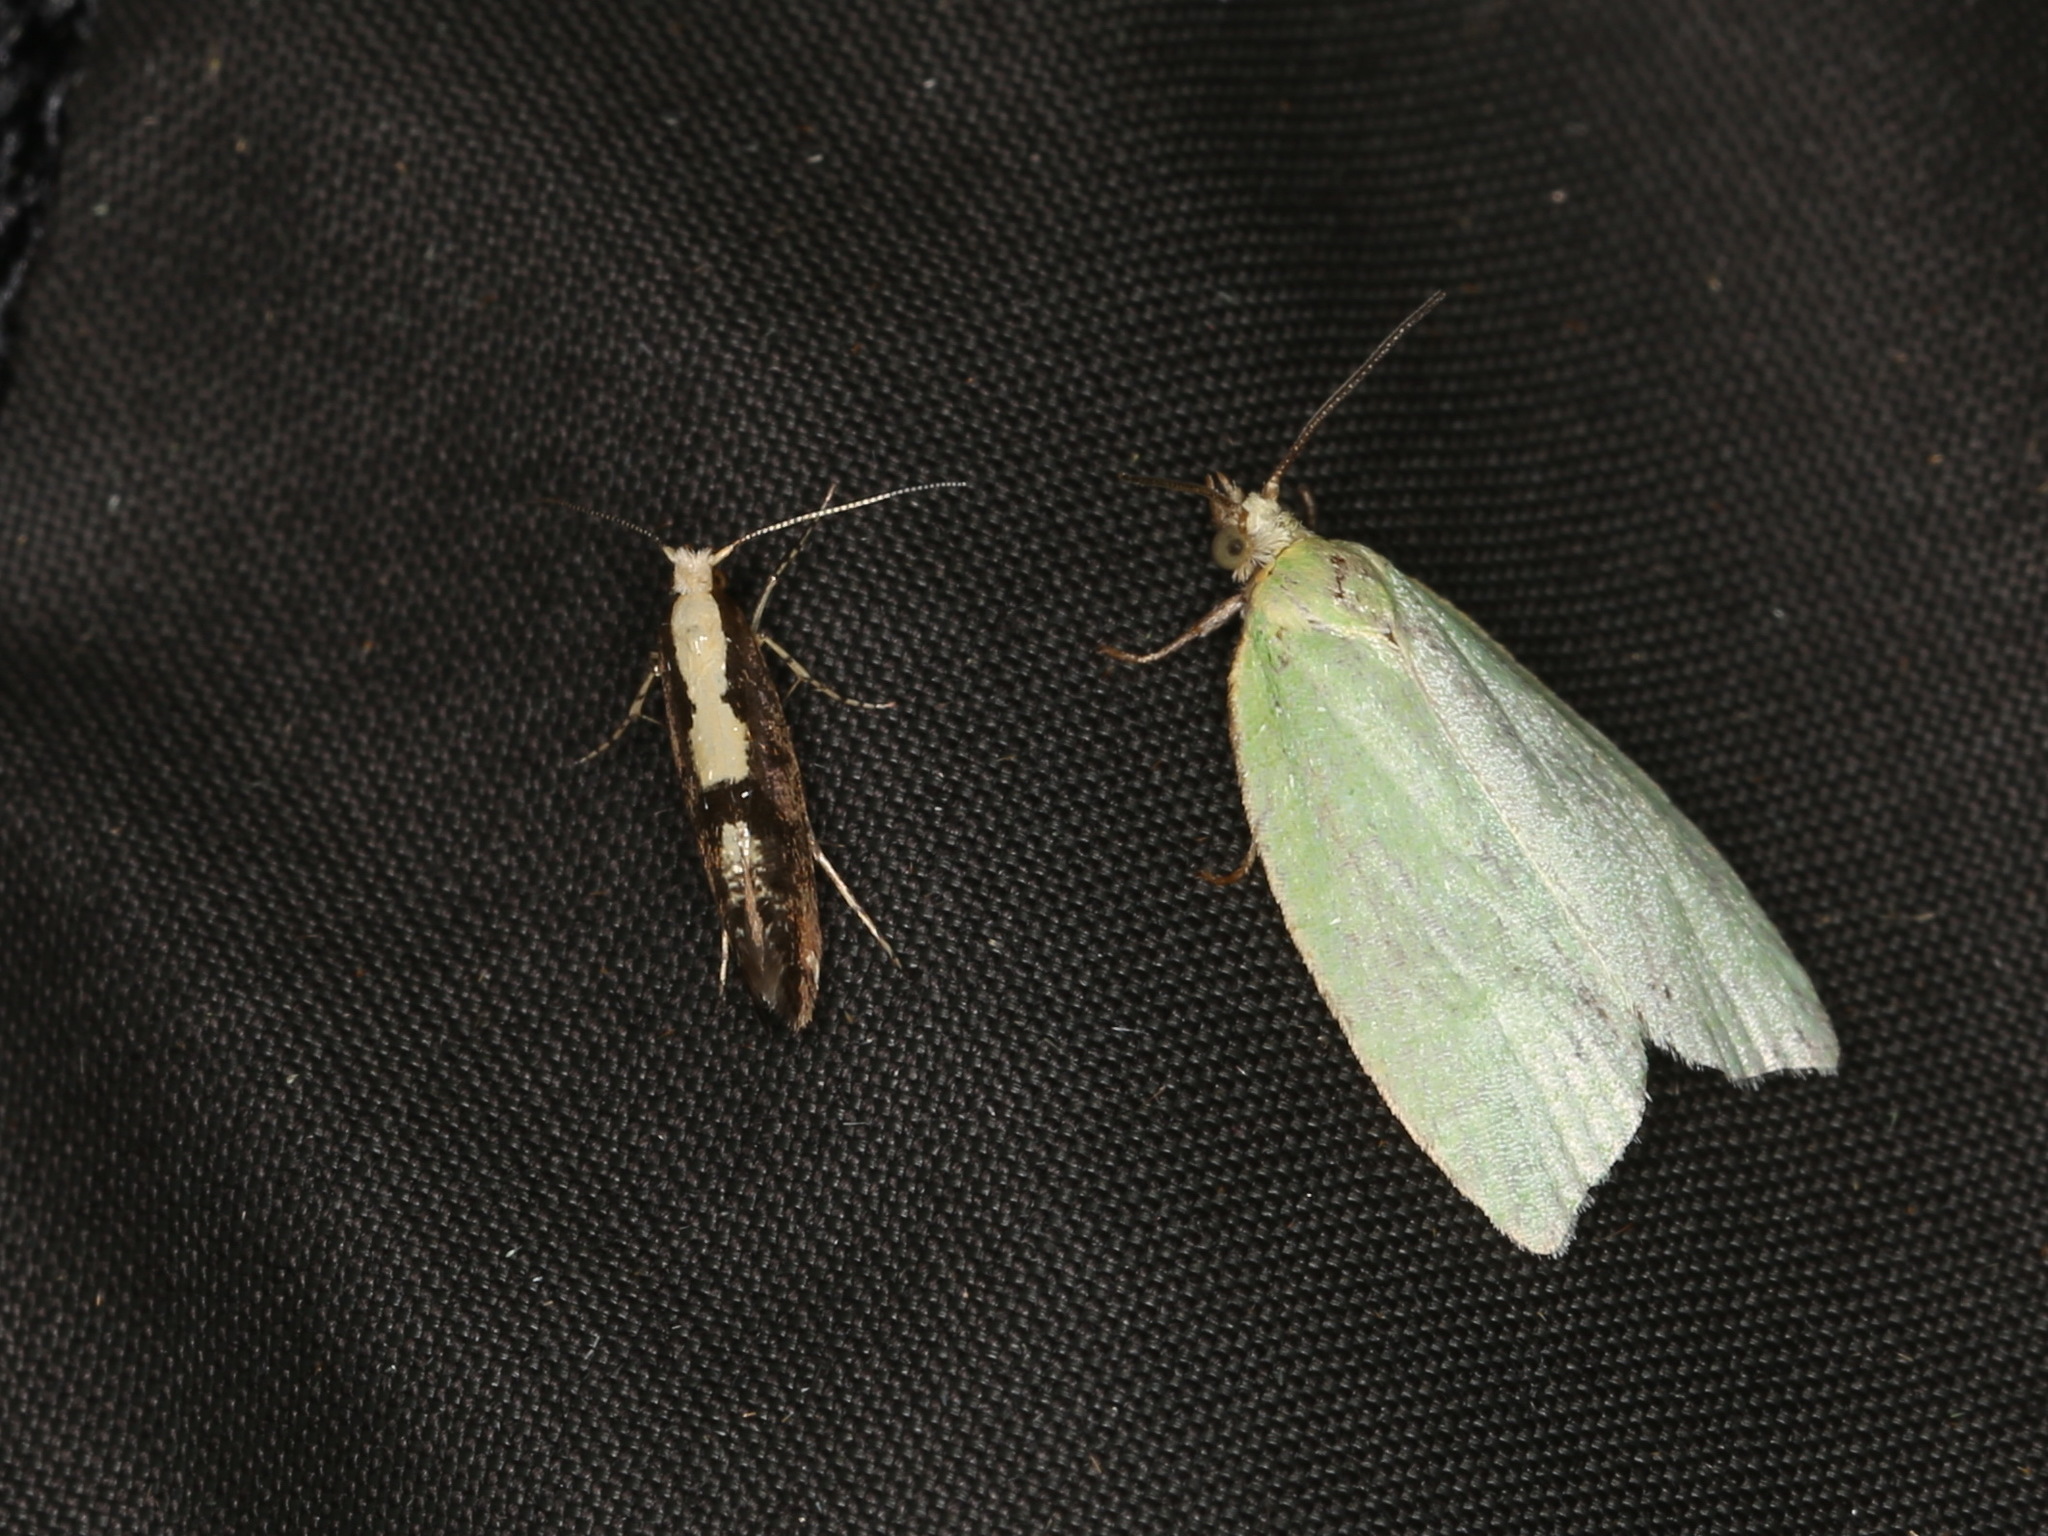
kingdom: Animalia
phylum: Arthropoda
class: Insecta
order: Lepidoptera
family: Argyresthiidae
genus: Argyresthia
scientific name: Argyresthia pruniella
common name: Cherry fruit moth
